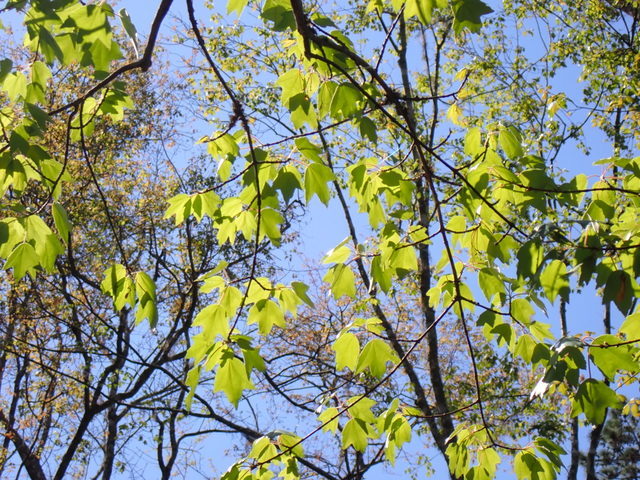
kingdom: Plantae
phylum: Tracheophyta
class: Magnoliopsida
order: Sapindales
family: Sapindaceae
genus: Acer
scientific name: Acer rubrum
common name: Red maple
